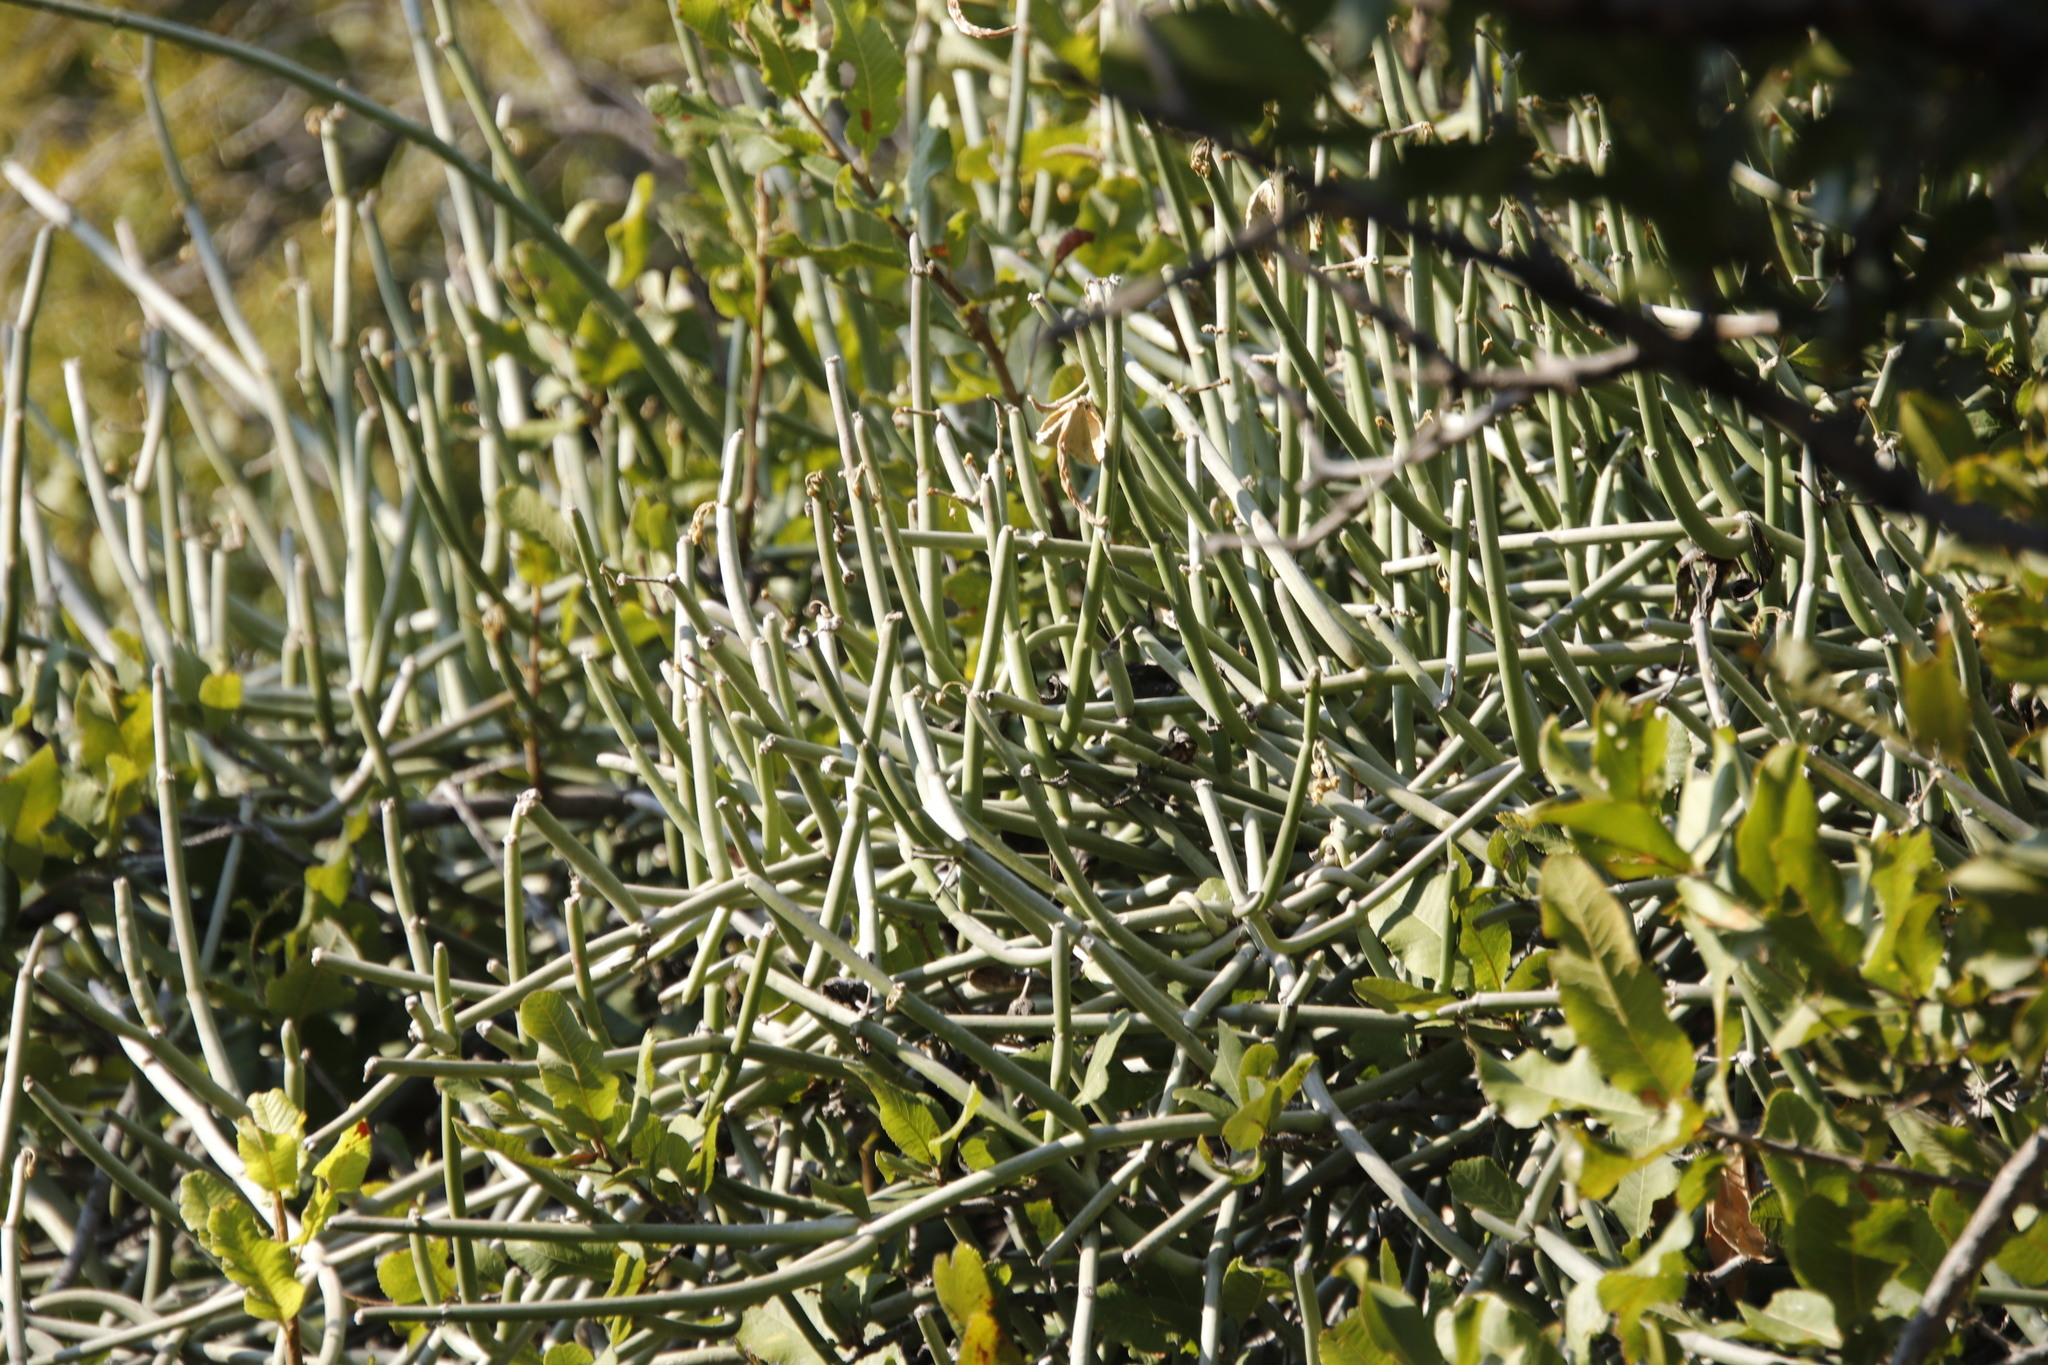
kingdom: Plantae
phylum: Tracheophyta
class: Magnoliopsida
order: Gentianales
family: Apocynaceae
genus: Cynanchum
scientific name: Cynanchum viminale
